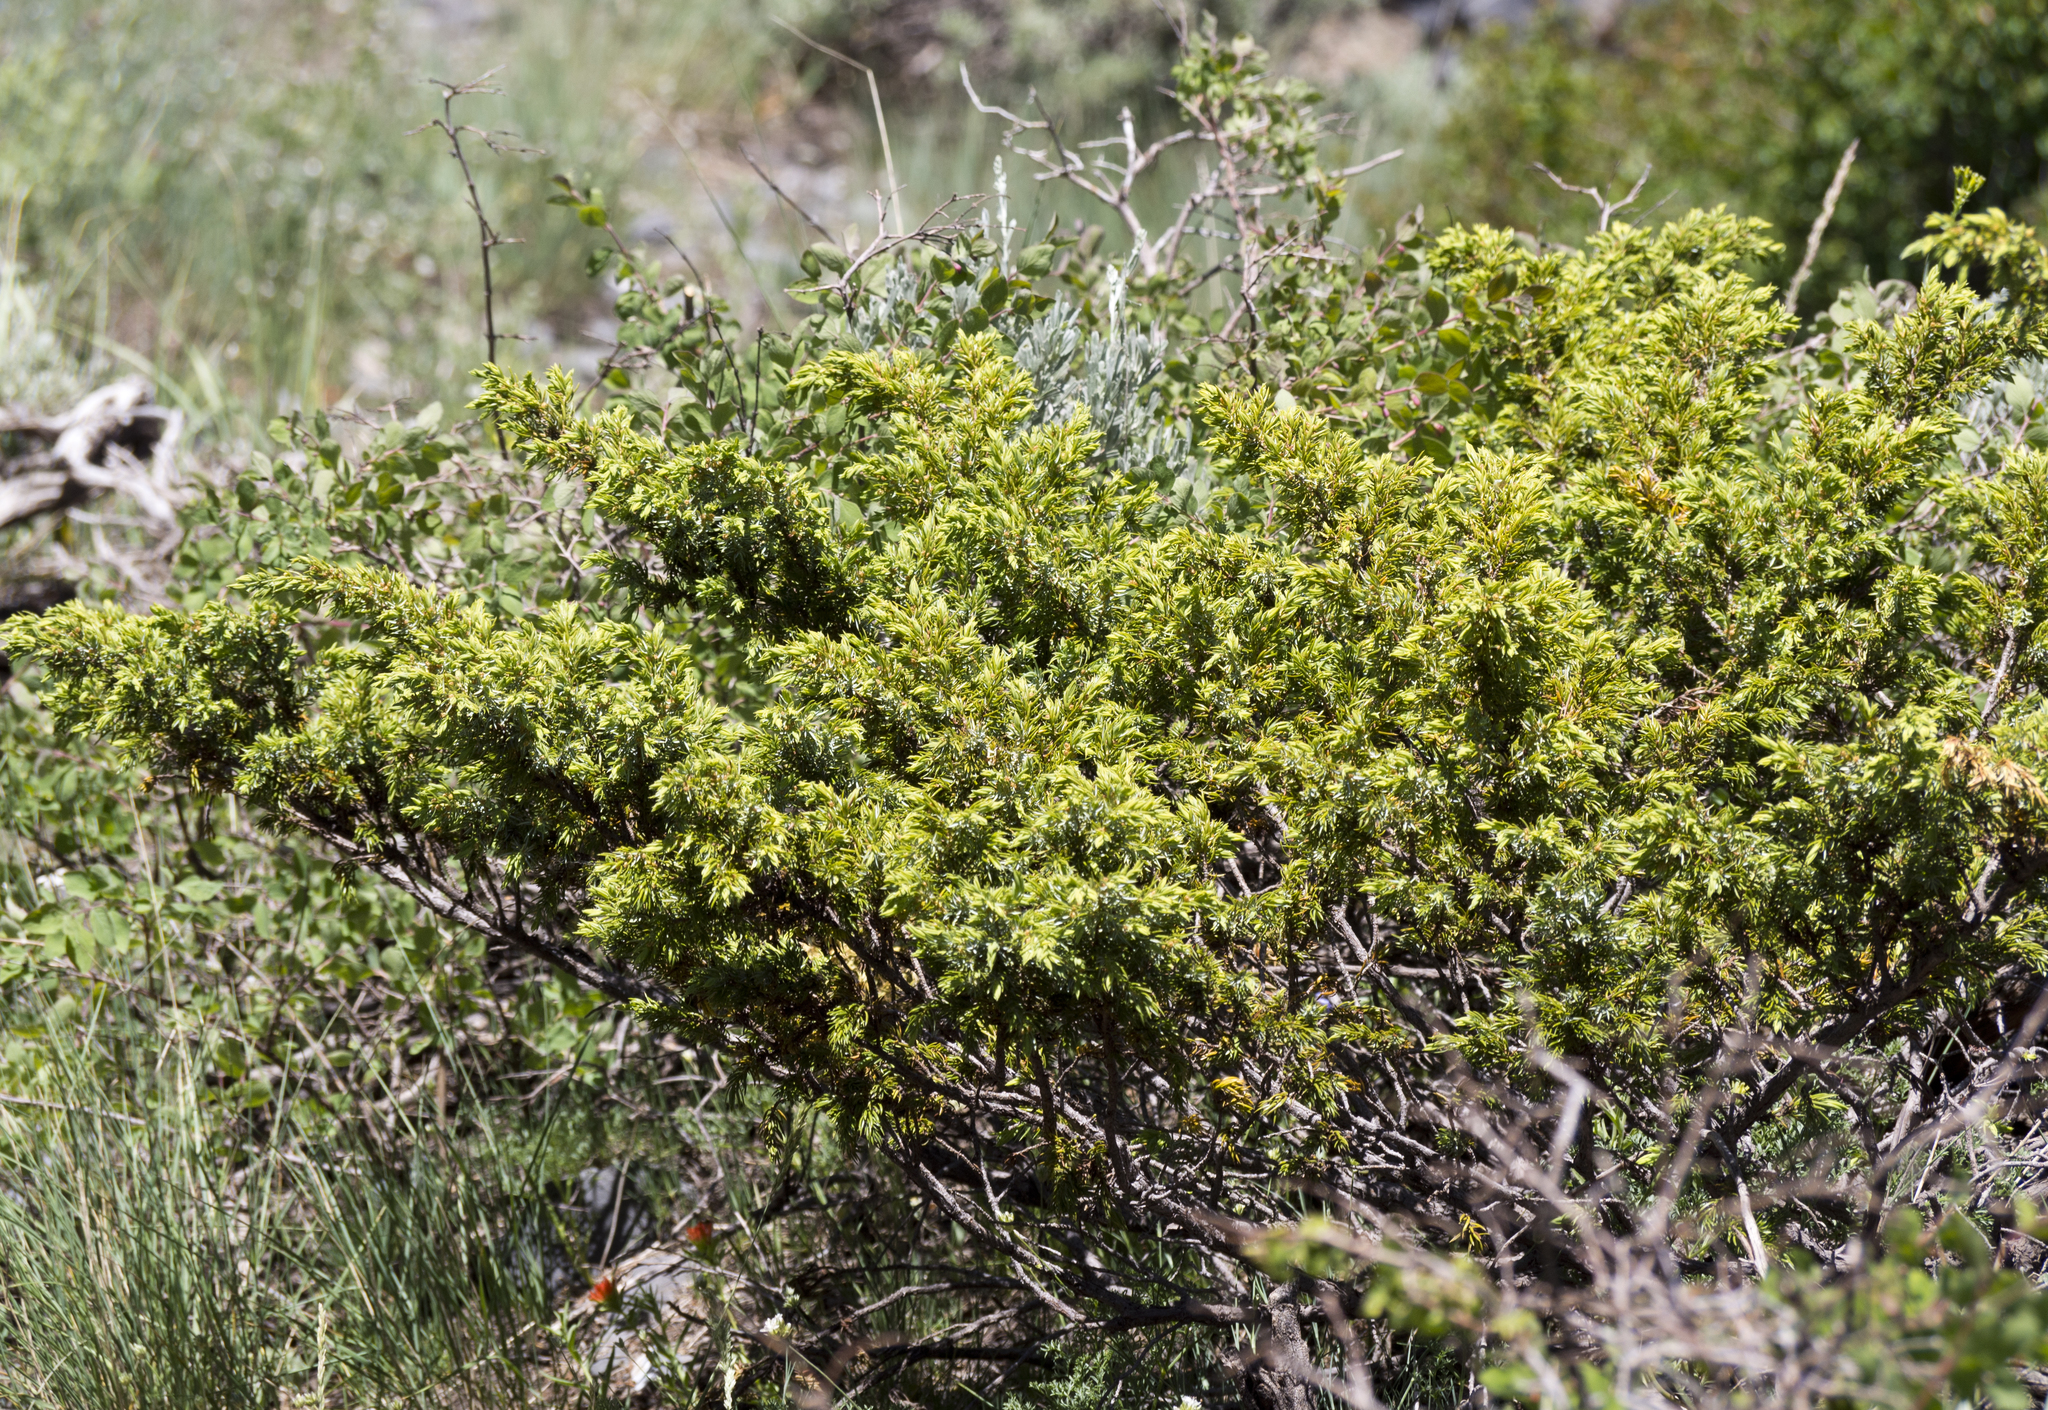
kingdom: Plantae
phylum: Tracheophyta
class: Pinopsida
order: Pinales
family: Cupressaceae
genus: Juniperus
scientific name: Juniperus communis
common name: Common juniper
